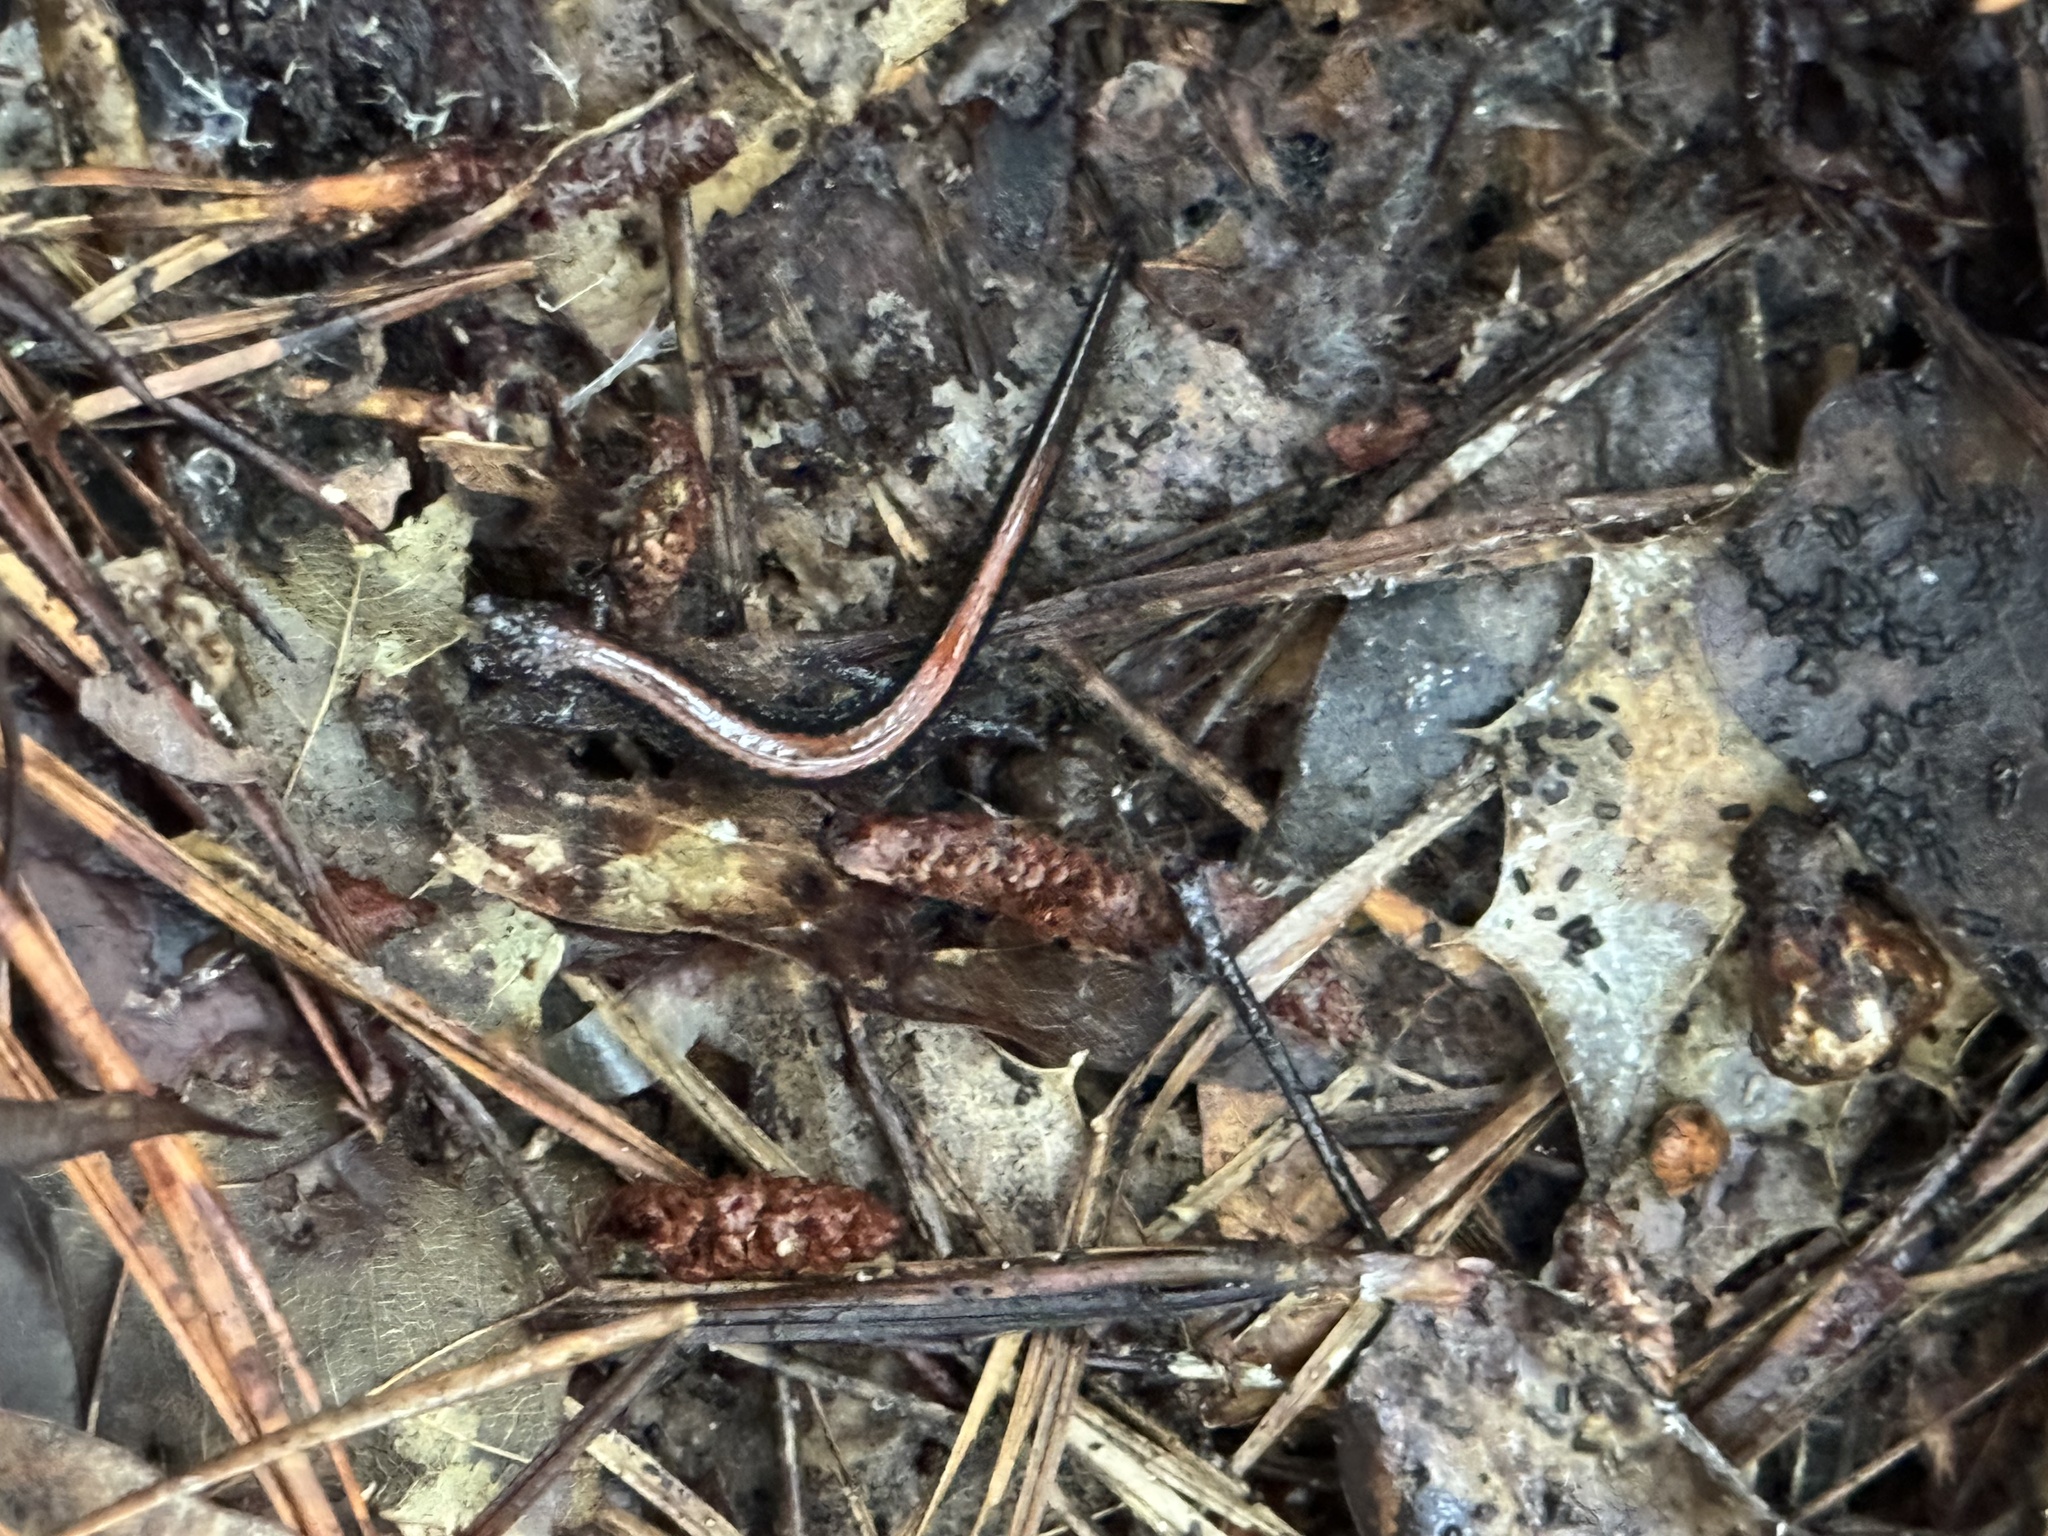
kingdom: Animalia
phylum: Chordata
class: Amphibia
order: Caudata
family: Plethodontidae
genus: Plethodon
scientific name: Plethodon cinereus
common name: Redback salamander
